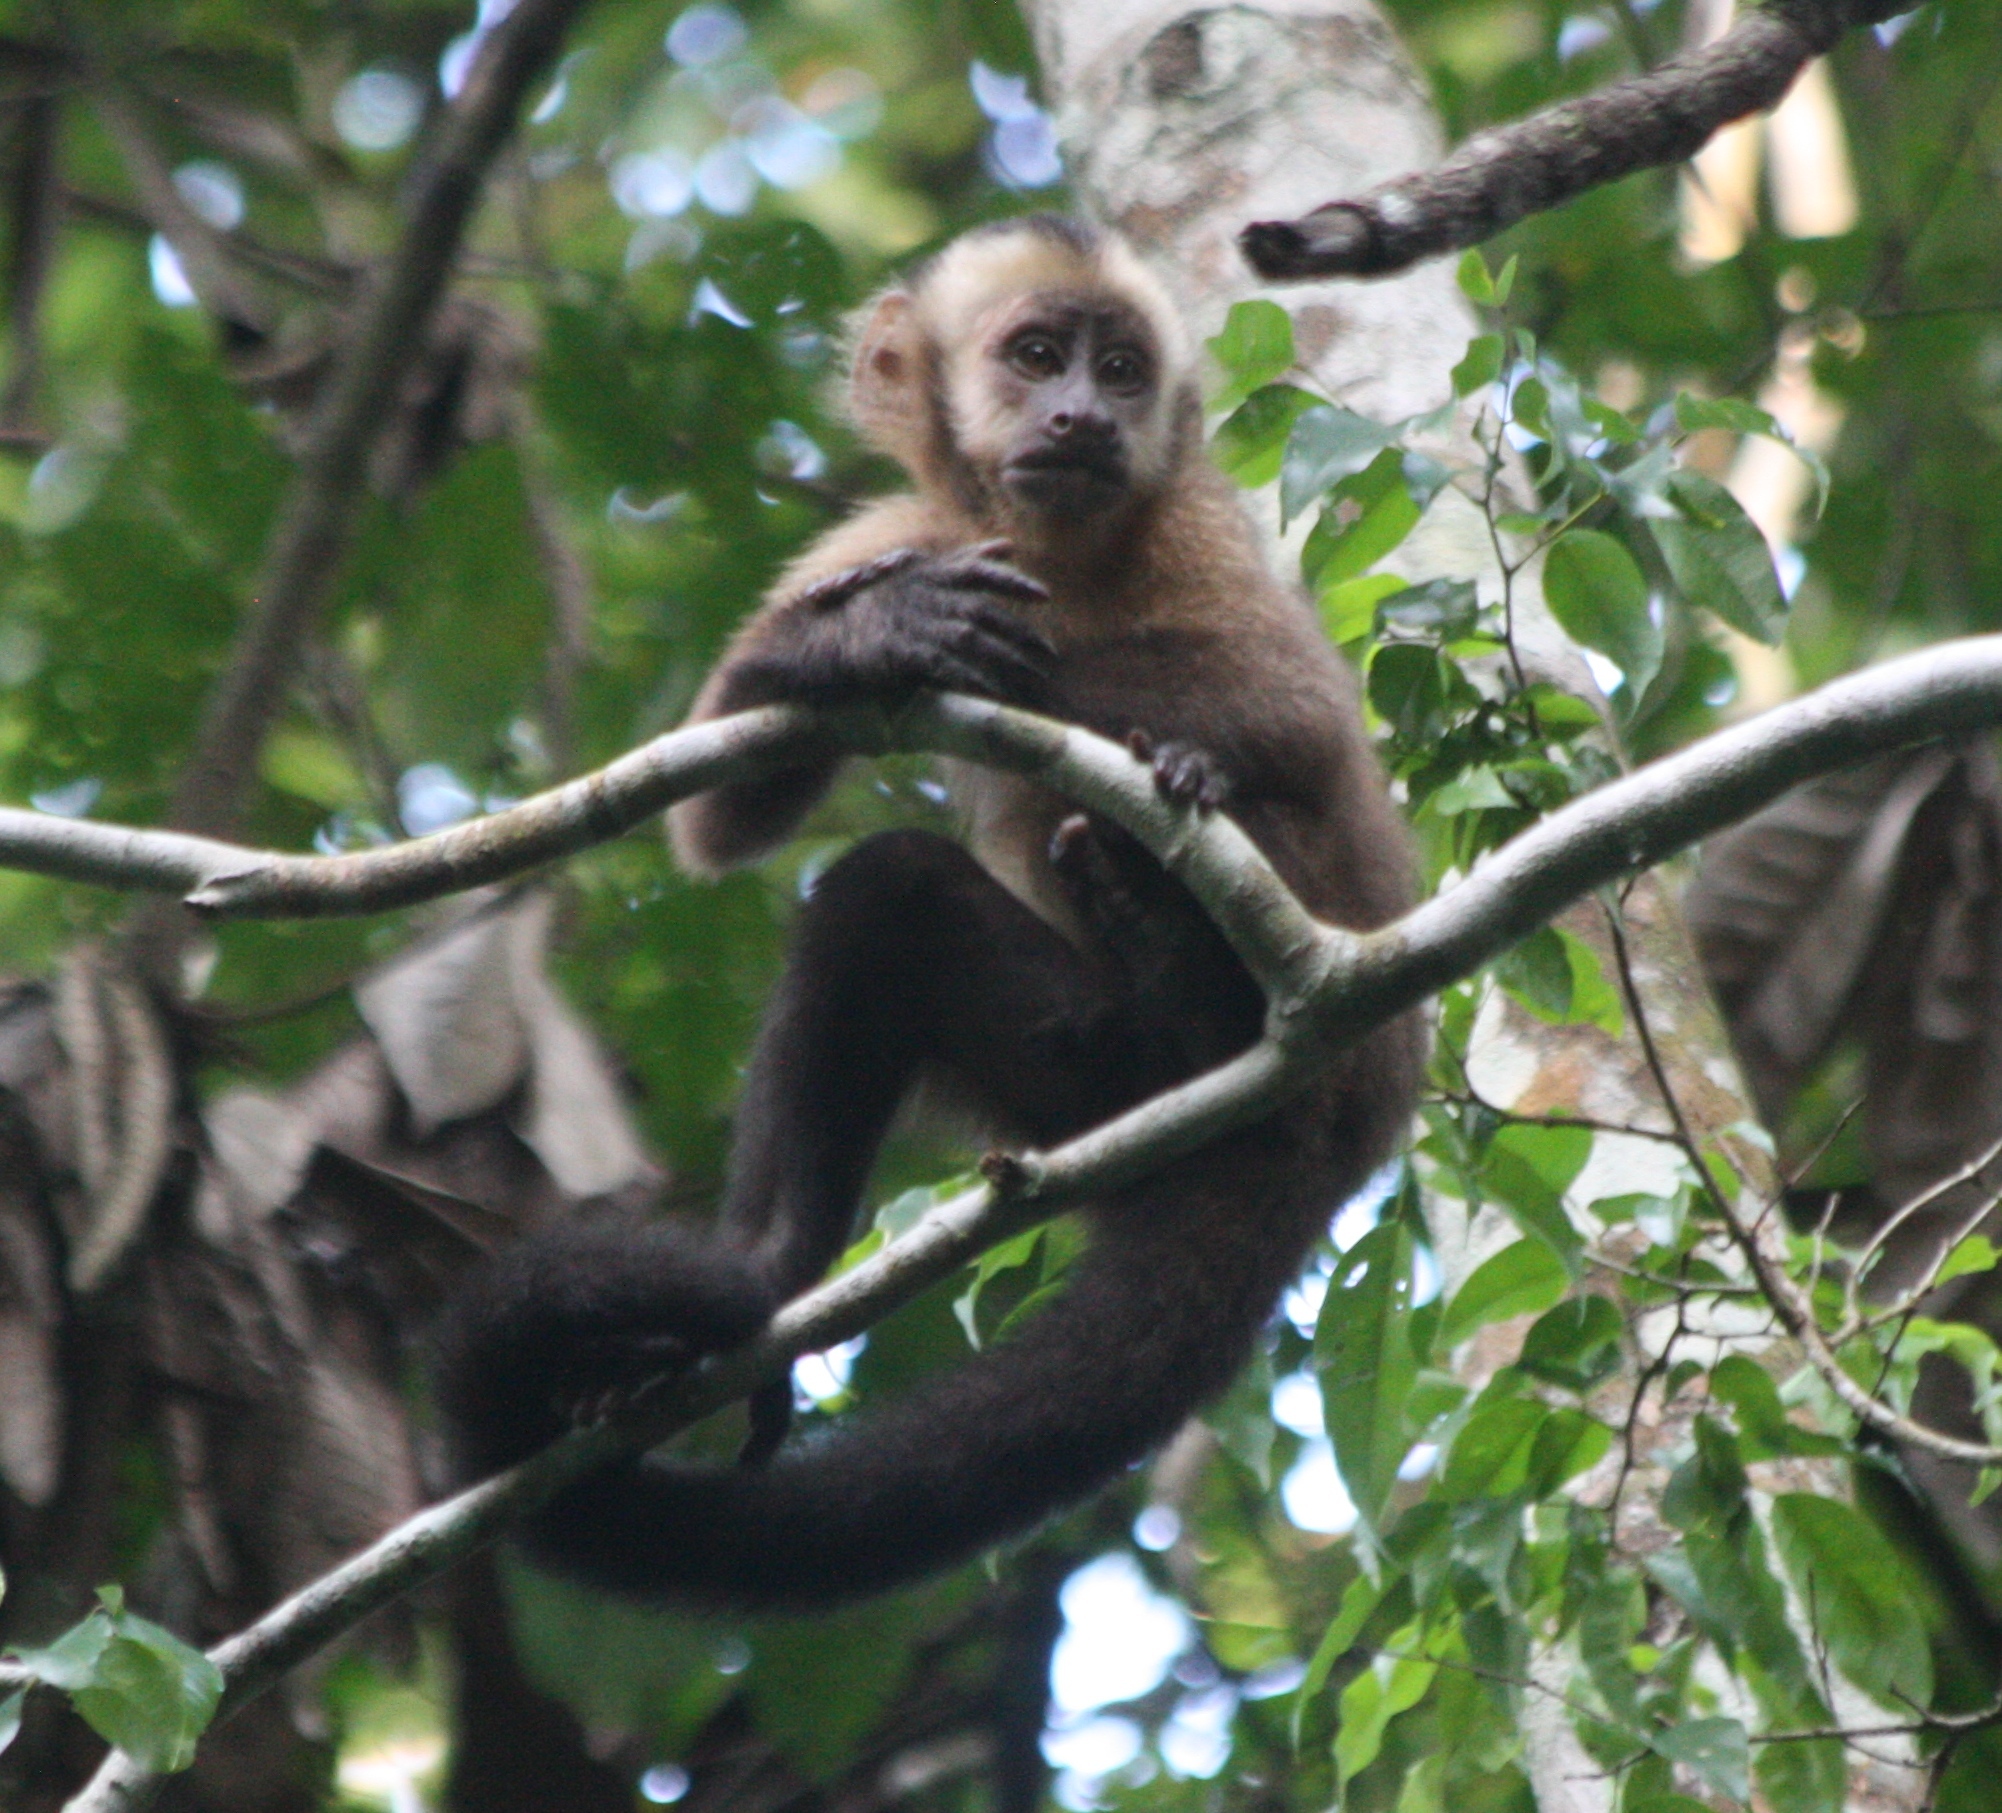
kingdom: Animalia
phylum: Chordata
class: Mammalia
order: Primates
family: Cebidae
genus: Sapajus
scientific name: Sapajus apella
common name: Tufted capuchin
